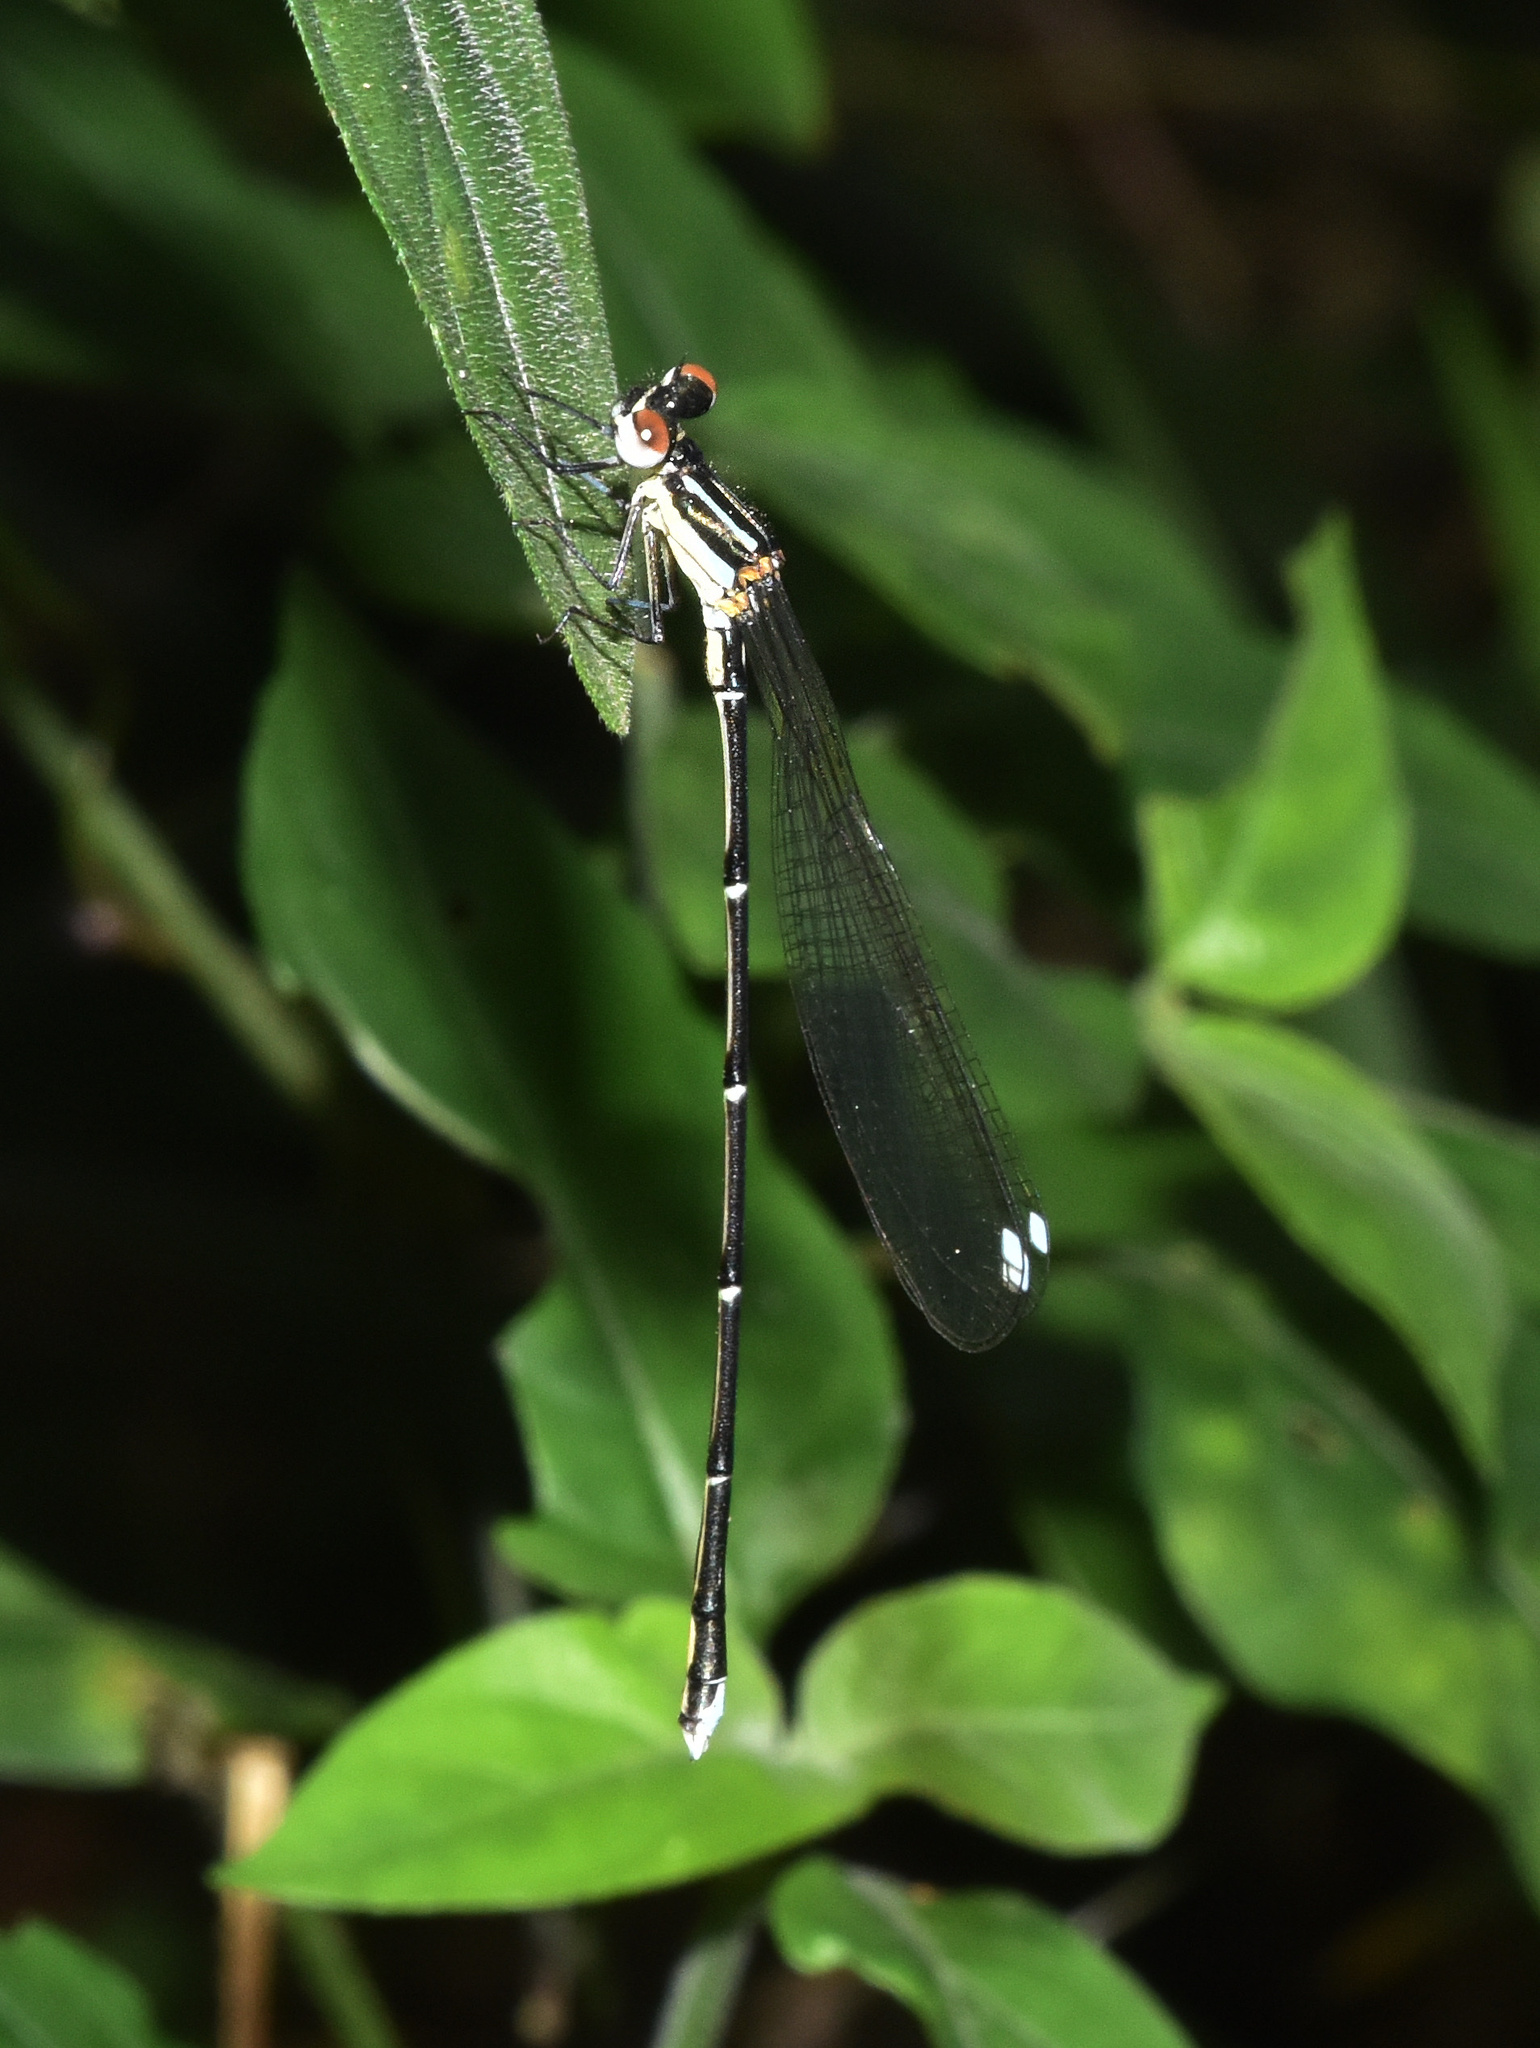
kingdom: Animalia
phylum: Arthropoda
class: Insecta
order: Odonata
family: Platycnemididae
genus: Allocnemis
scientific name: Allocnemis leucosticta
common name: Goldtail
